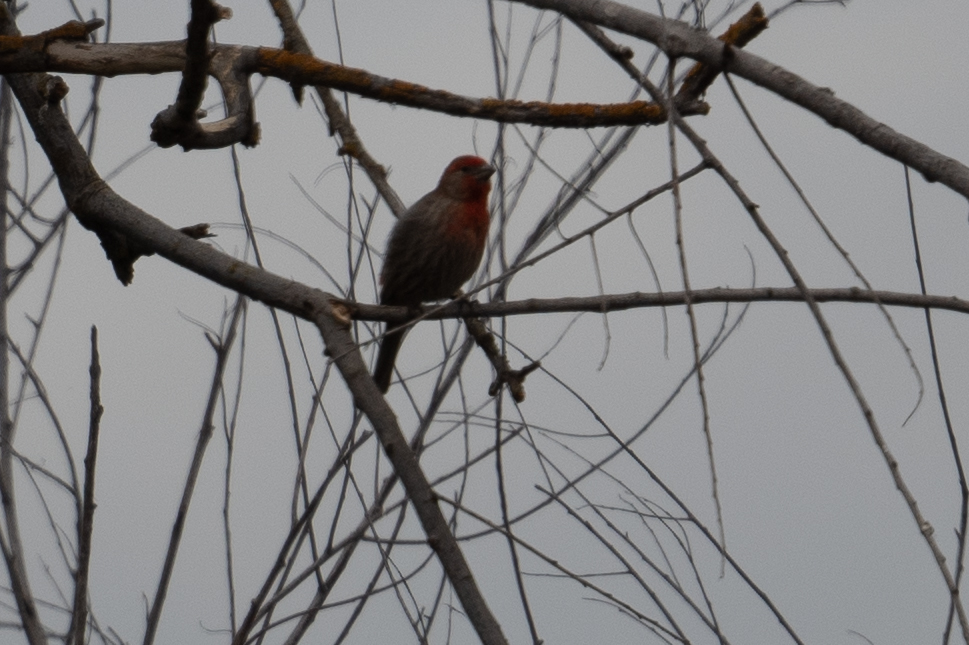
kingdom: Animalia
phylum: Chordata
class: Aves
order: Passeriformes
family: Fringillidae
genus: Haemorhous
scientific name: Haemorhous mexicanus
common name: House finch
